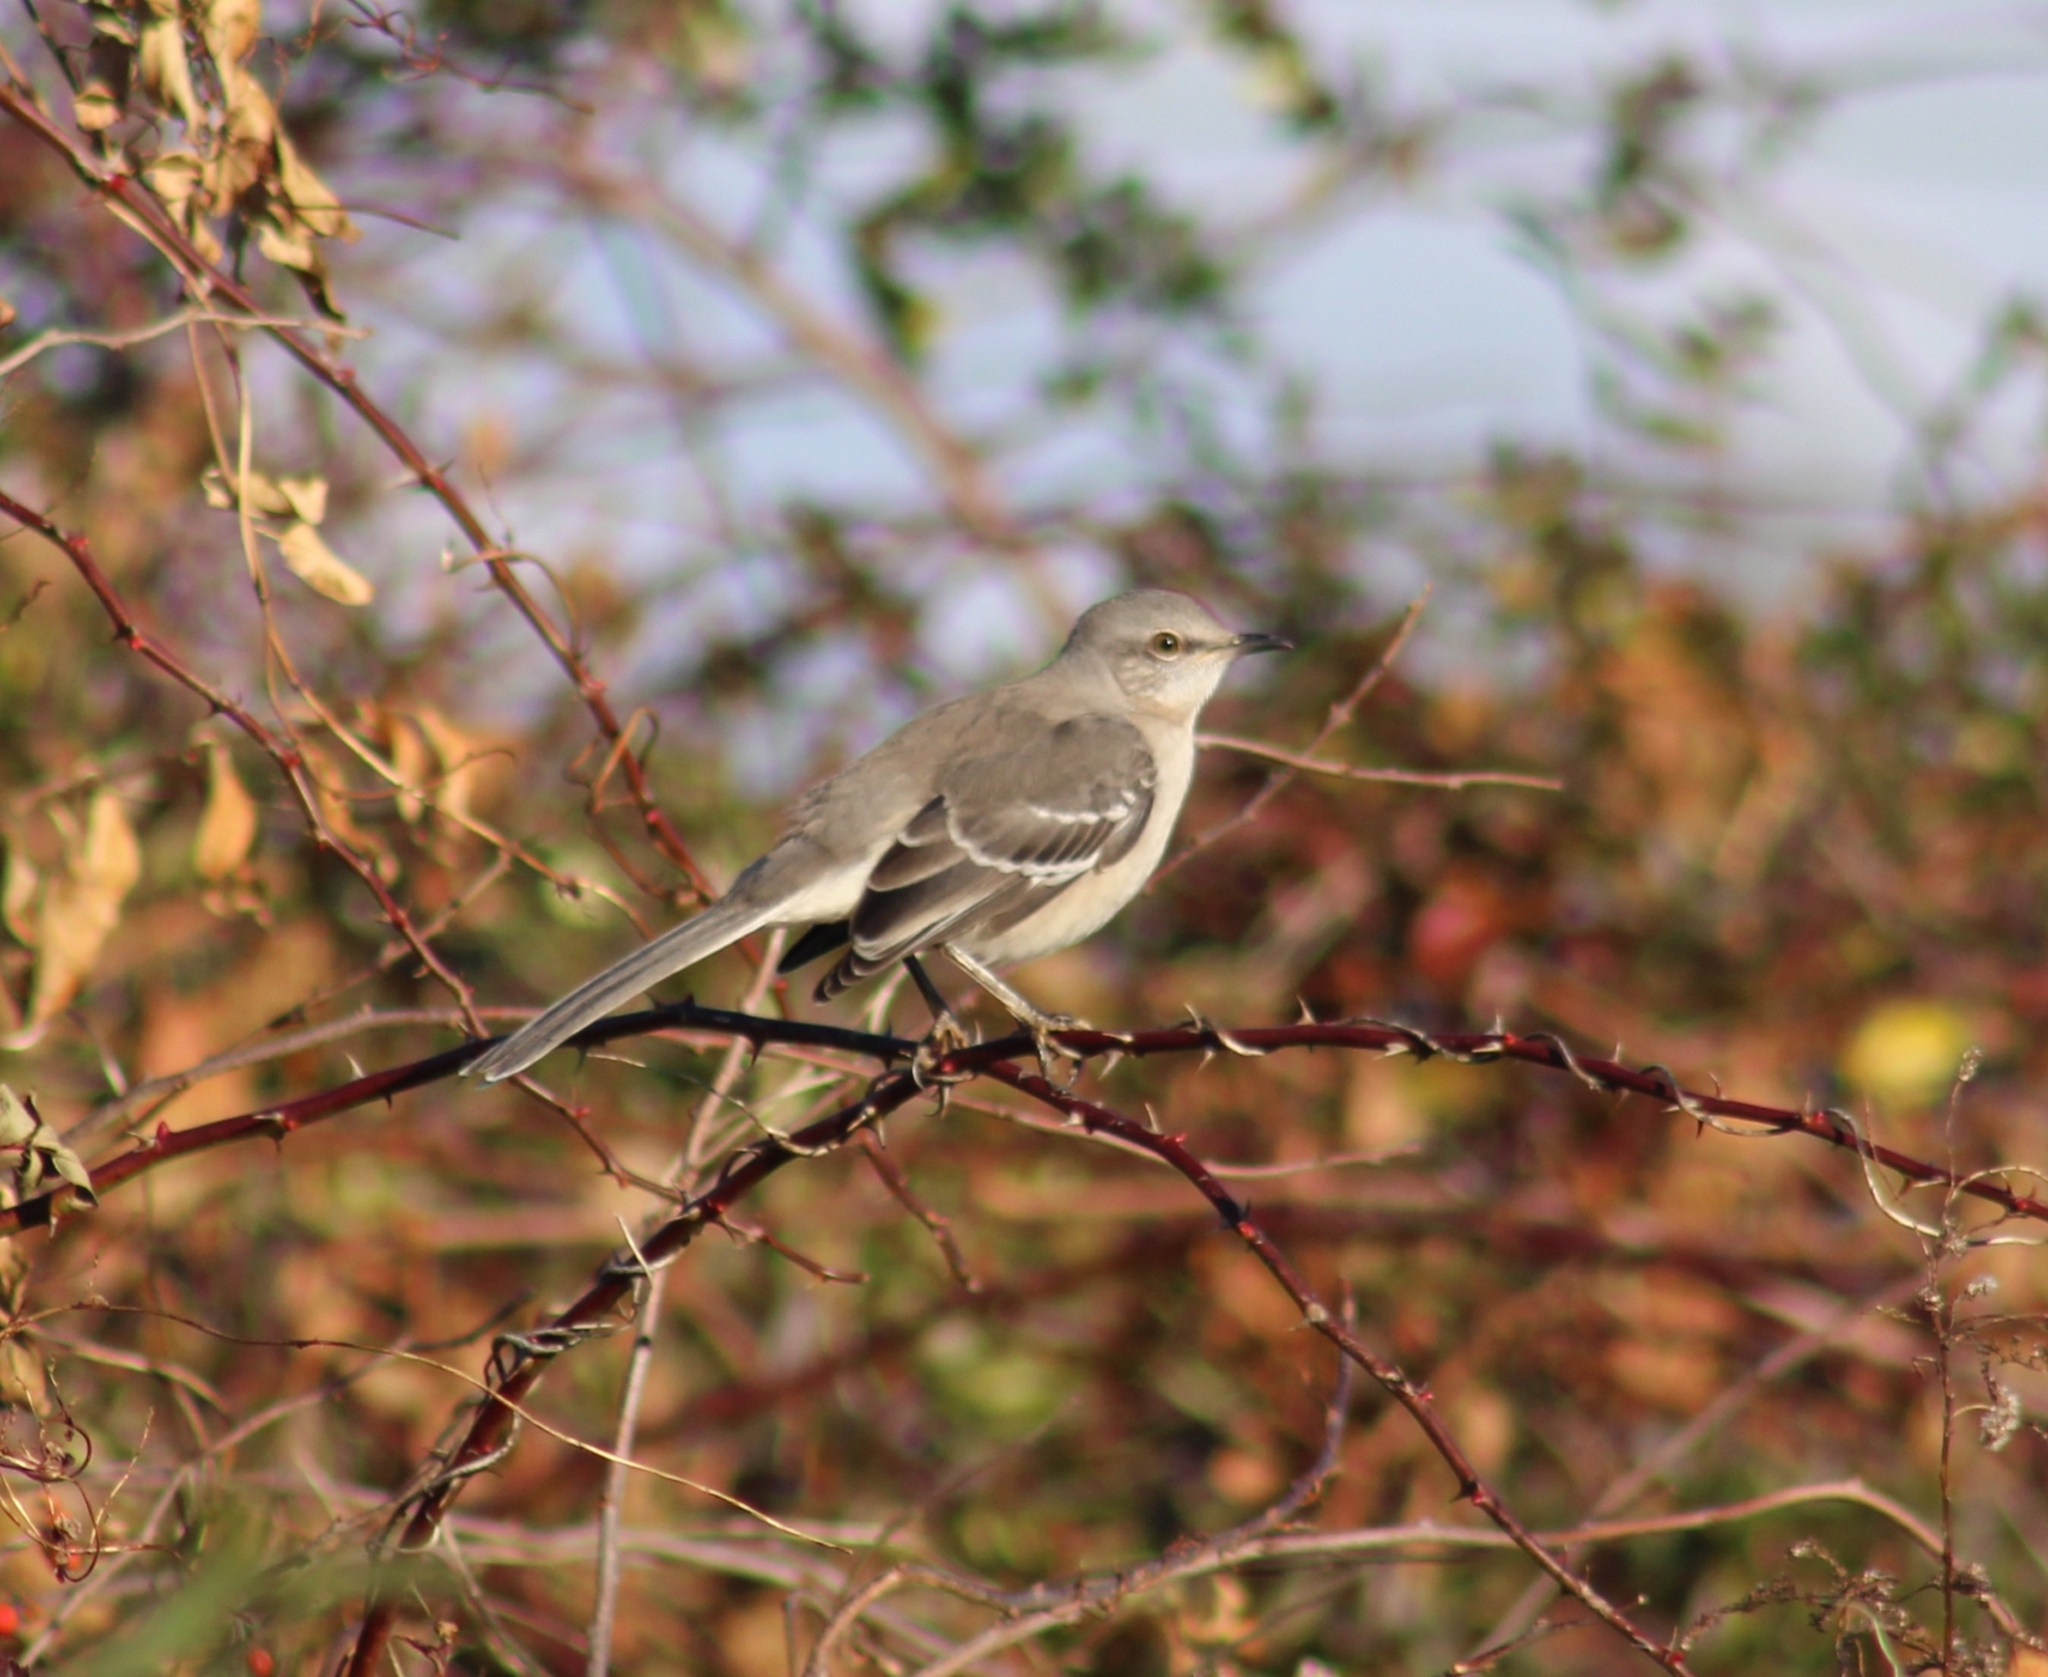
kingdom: Animalia
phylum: Chordata
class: Aves
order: Passeriformes
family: Mimidae
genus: Mimus
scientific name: Mimus polyglottos
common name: Northern mockingbird
